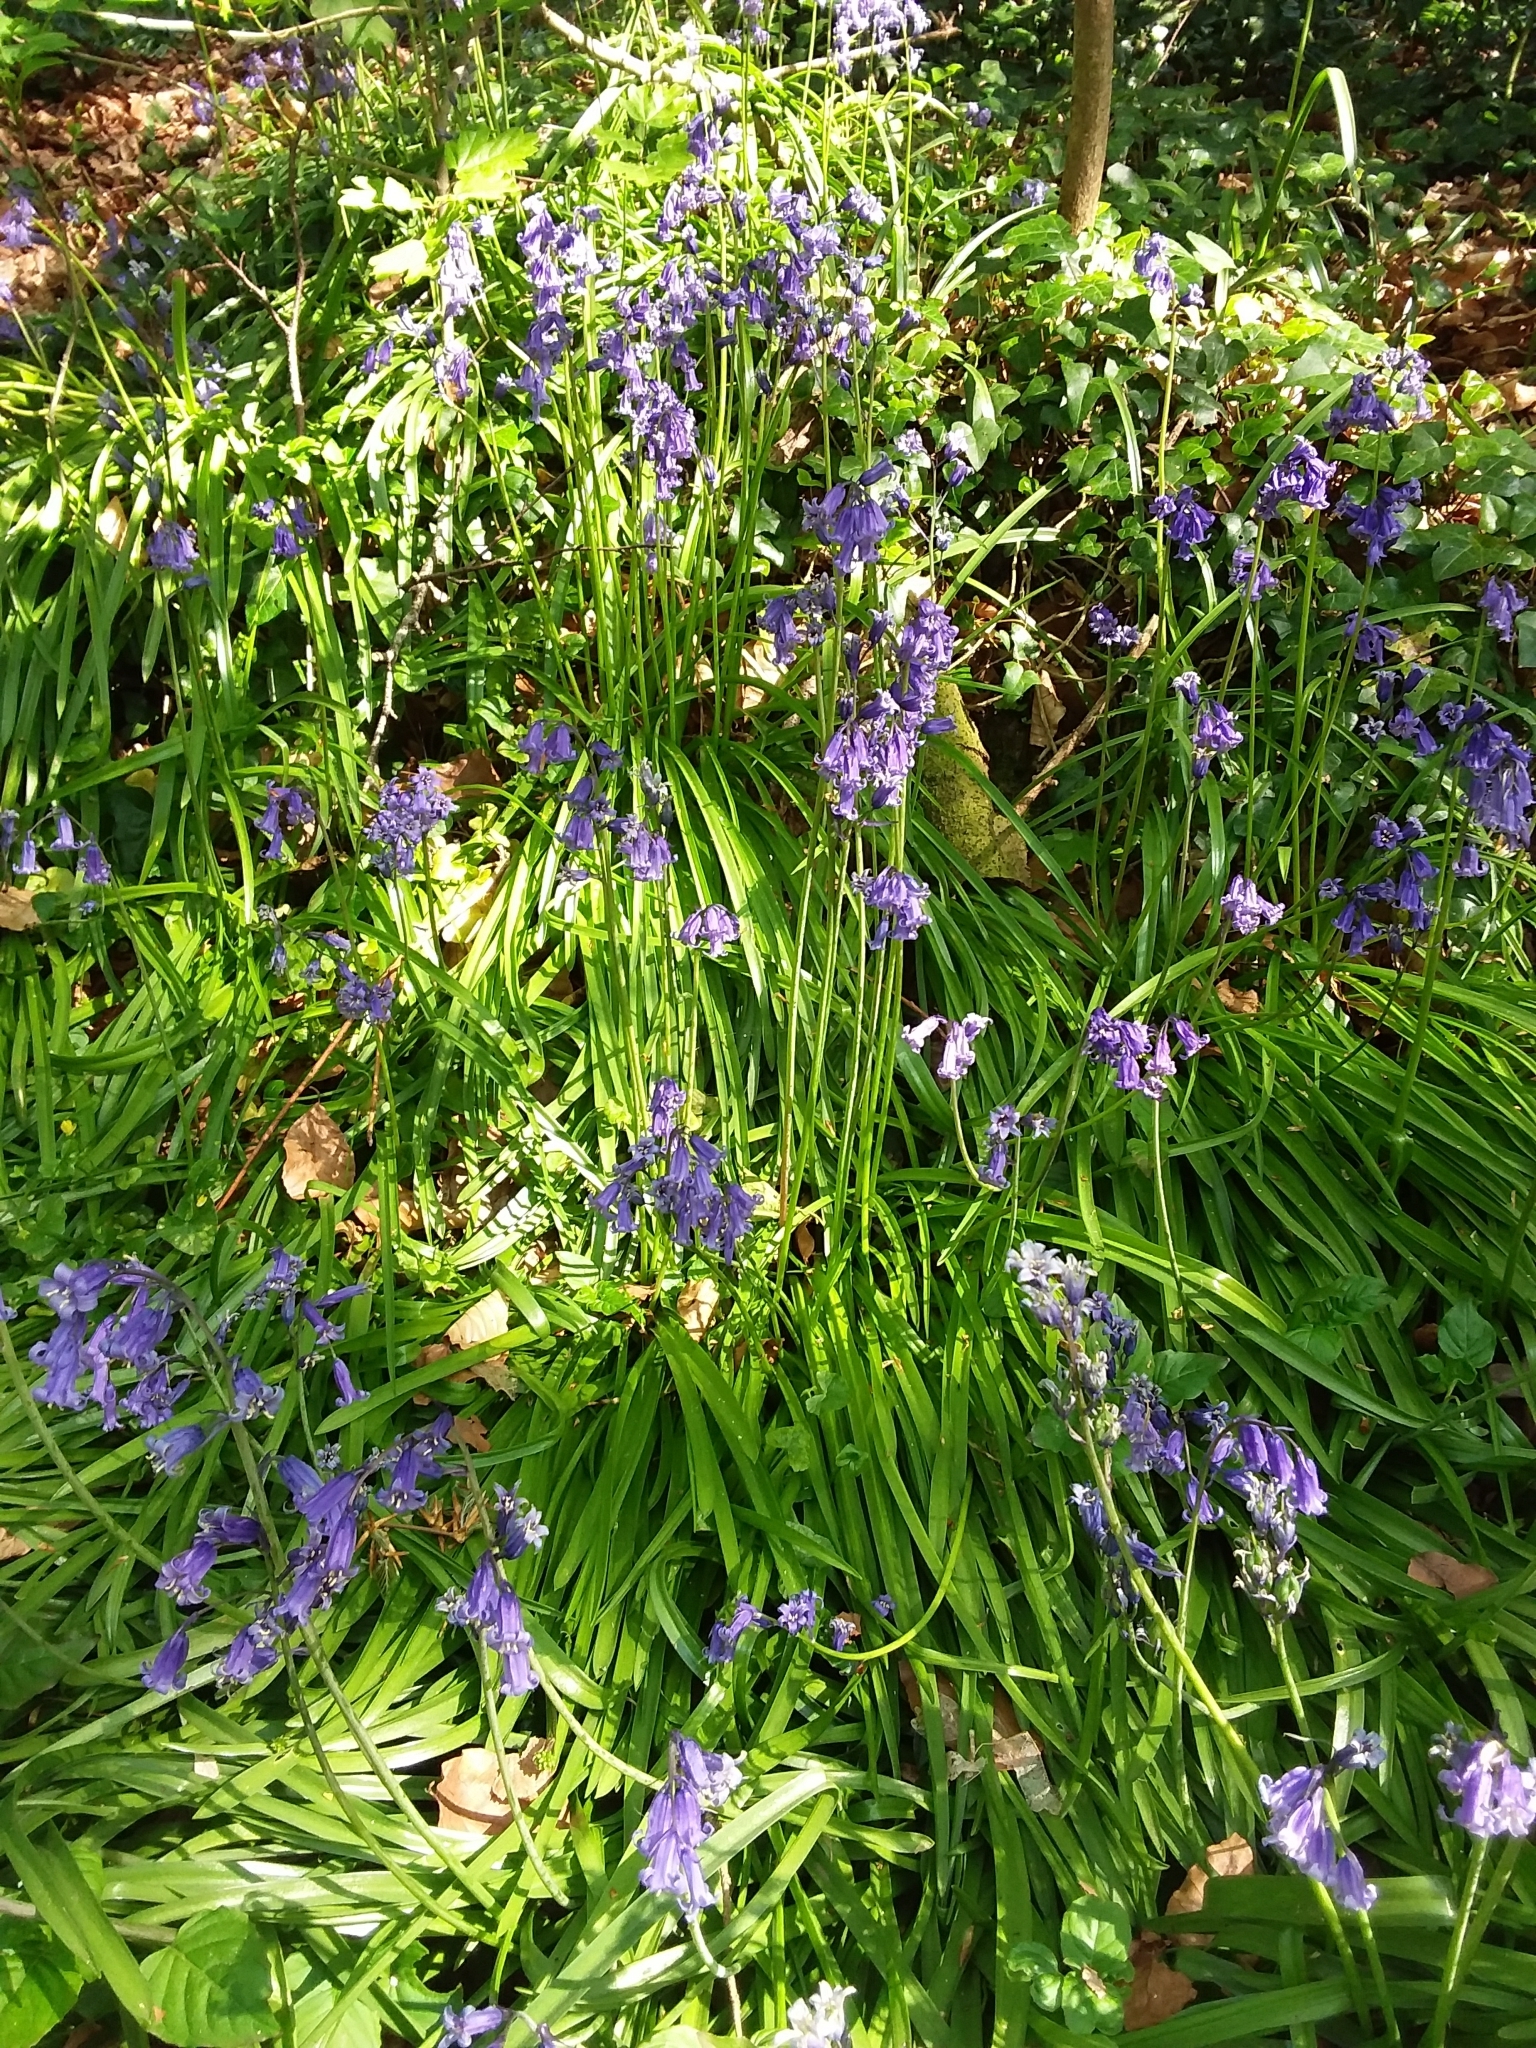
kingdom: Plantae
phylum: Tracheophyta
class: Liliopsida
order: Asparagales
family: Asparagaceae
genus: Hyacinthoides
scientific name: Hyacinthoides non-scripta
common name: Bluebell
